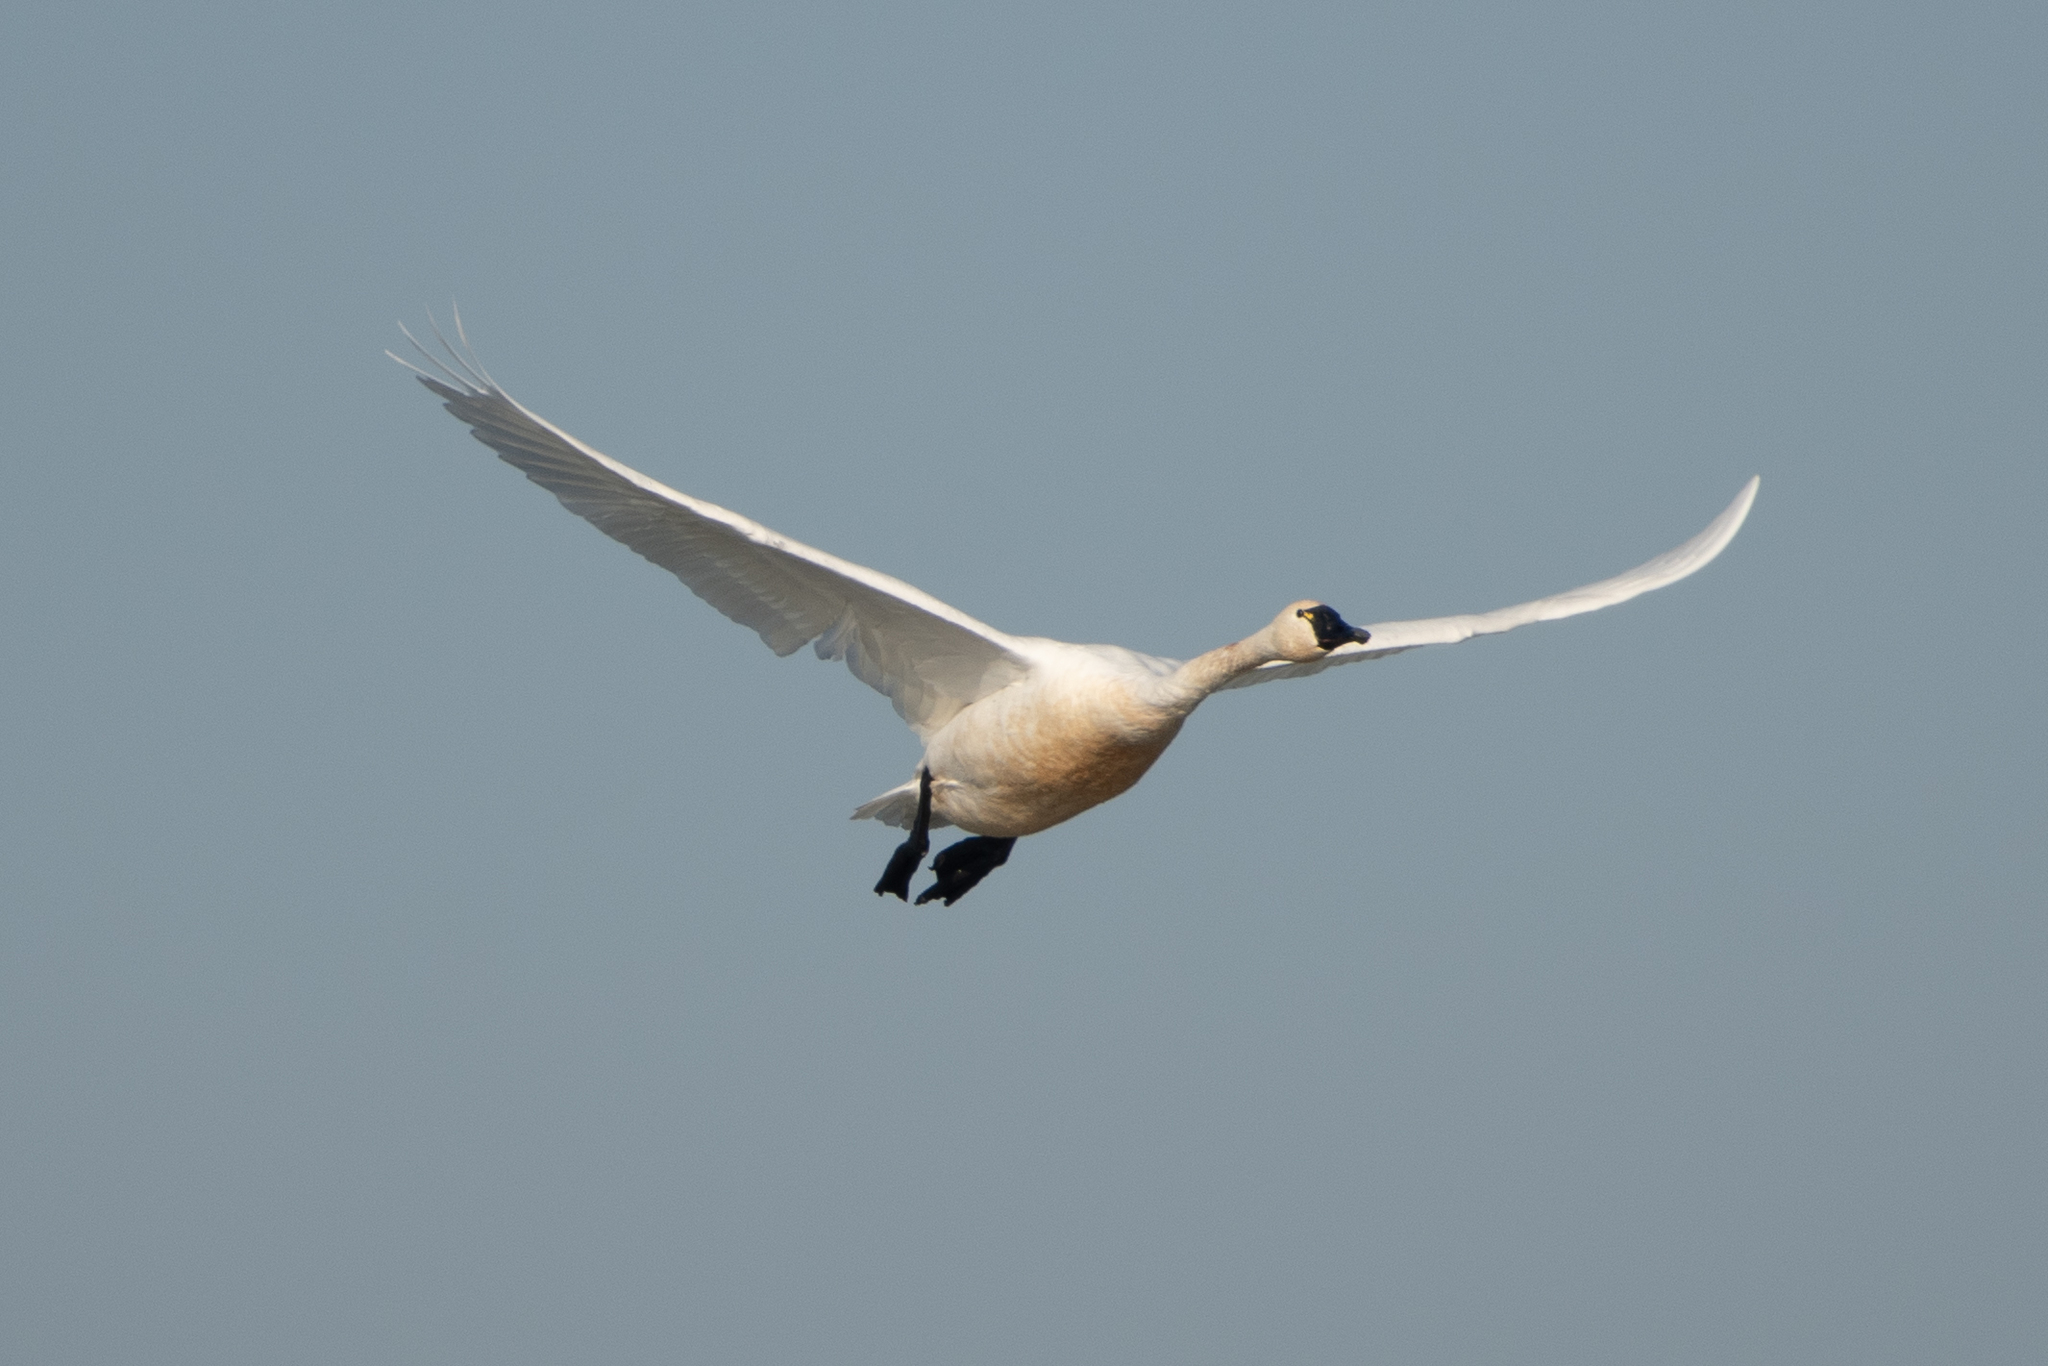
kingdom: Animalia
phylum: Chordata
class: Aves
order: Anseriformes
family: Anatidae
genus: Cygnus
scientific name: Cygnus columbianus
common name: Tundra swan
